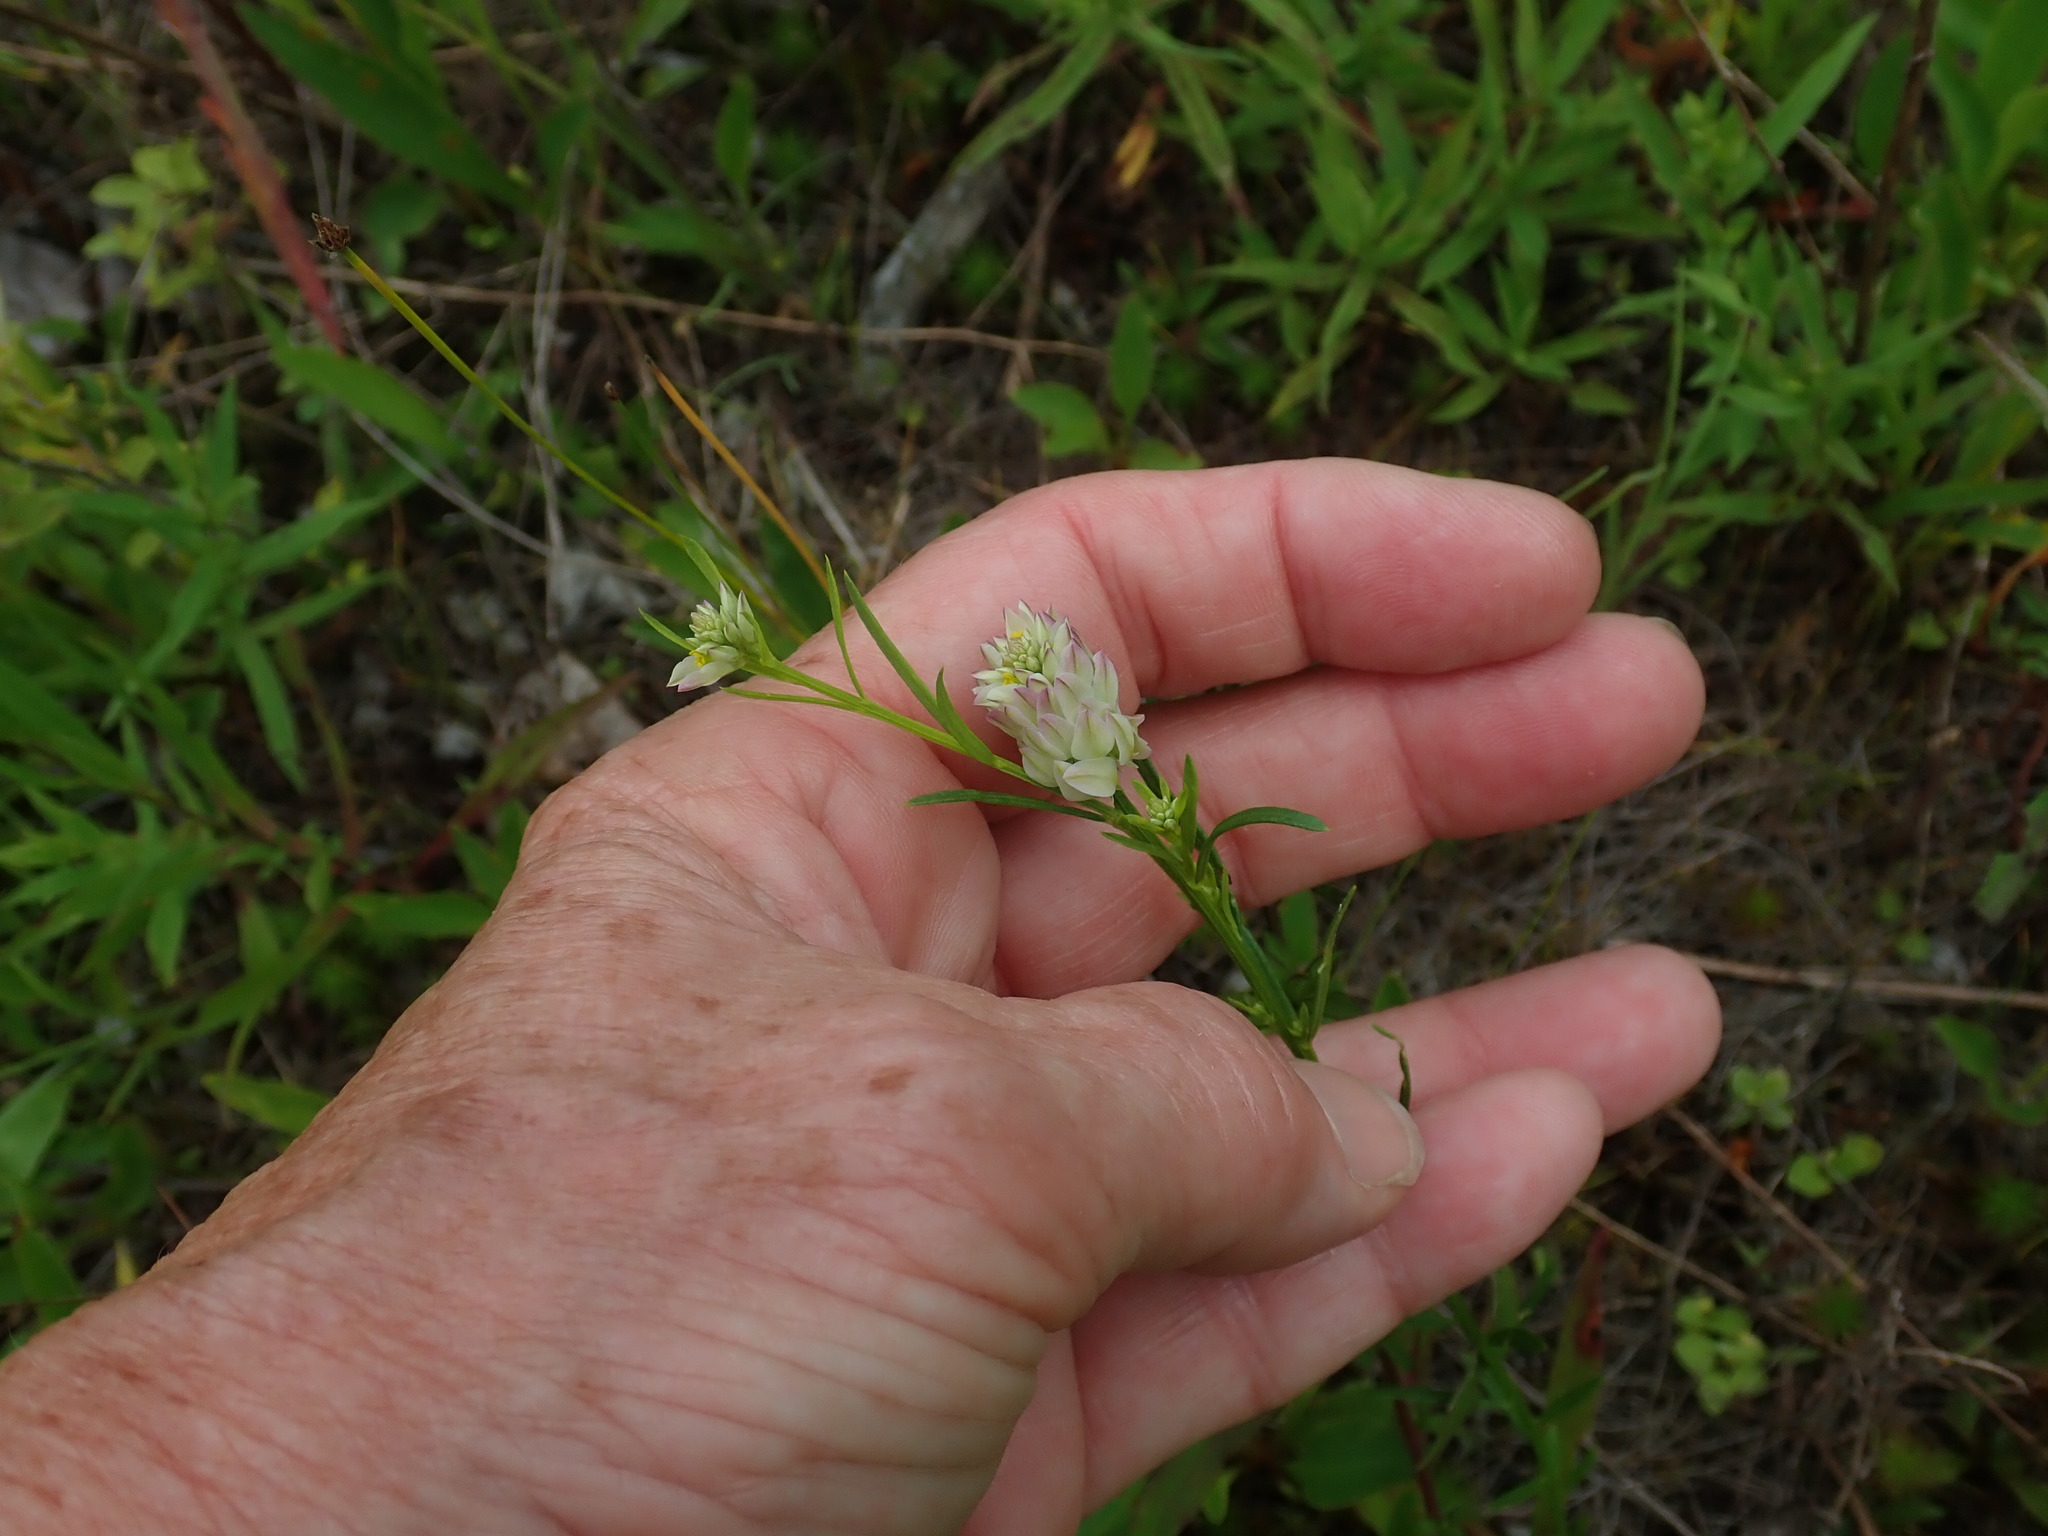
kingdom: Plantae
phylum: Tracheophyta
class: Magnoliopsida
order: Fabales
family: Polygalaceae
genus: Polygala
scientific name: Polygala sanguinea
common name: Blood milkwort
